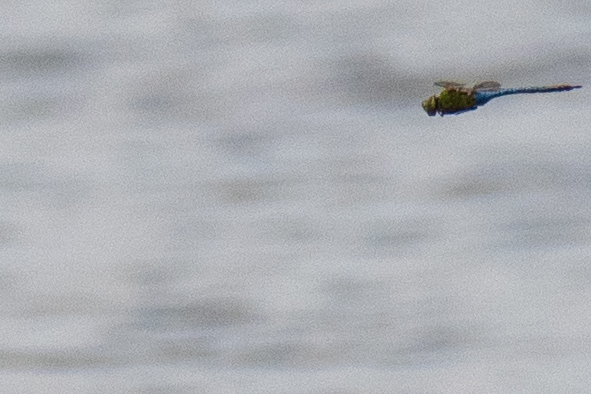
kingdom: Animalia
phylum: Arthropoda
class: Insecta
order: Odonata
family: Aeshnidae
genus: Anax
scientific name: Anax junius
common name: Common green darner
